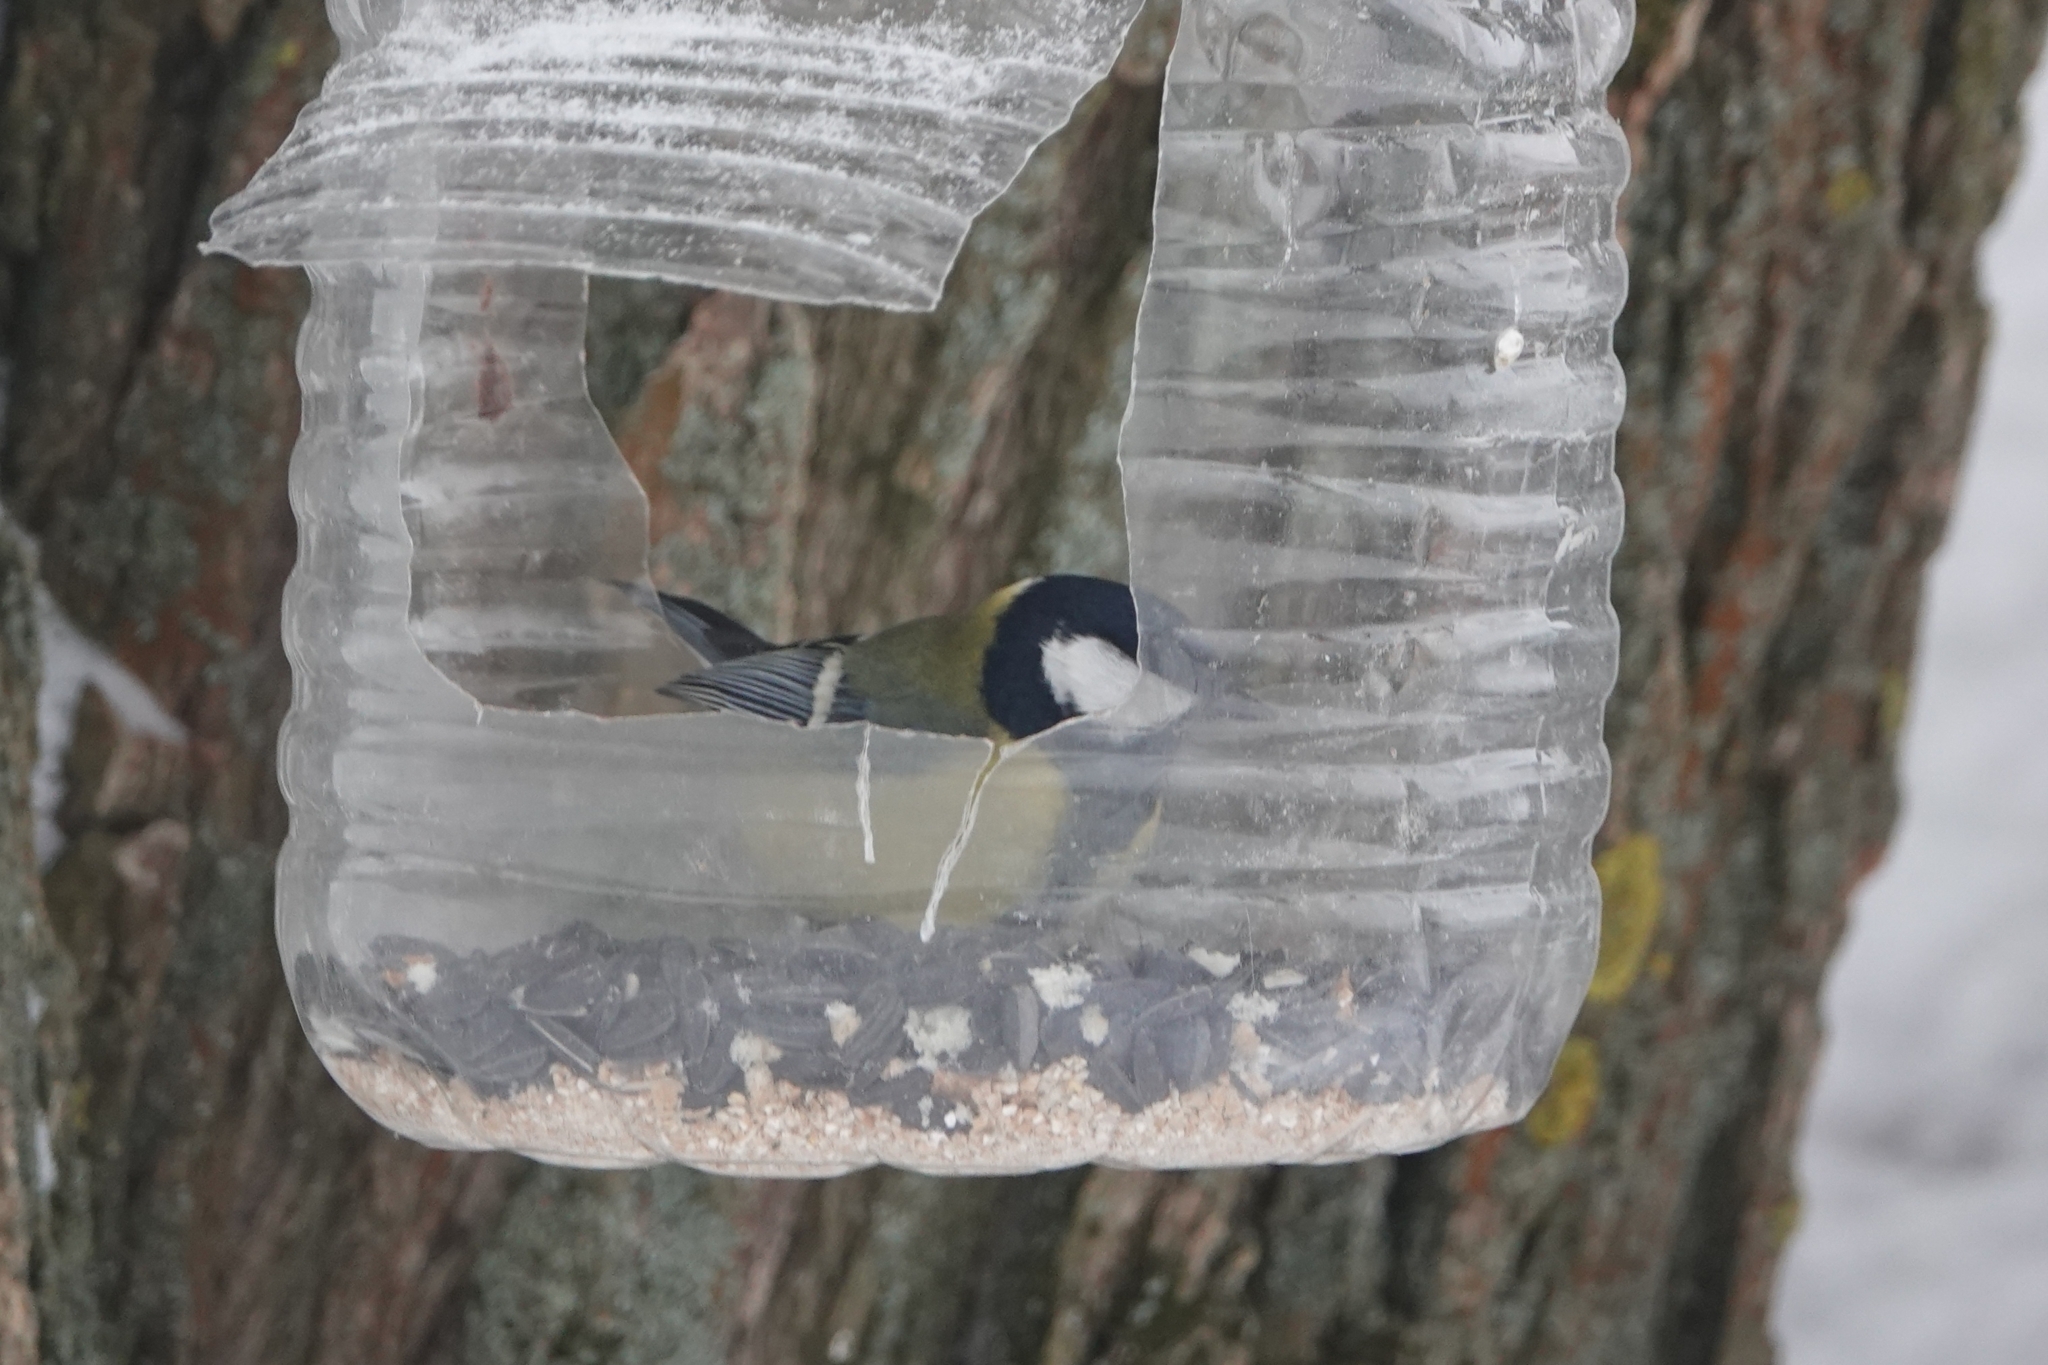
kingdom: Animalia
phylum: Chordata
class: Aves
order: Passeriformes
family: Paridae
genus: Parus
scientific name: Parus major
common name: Great tit
